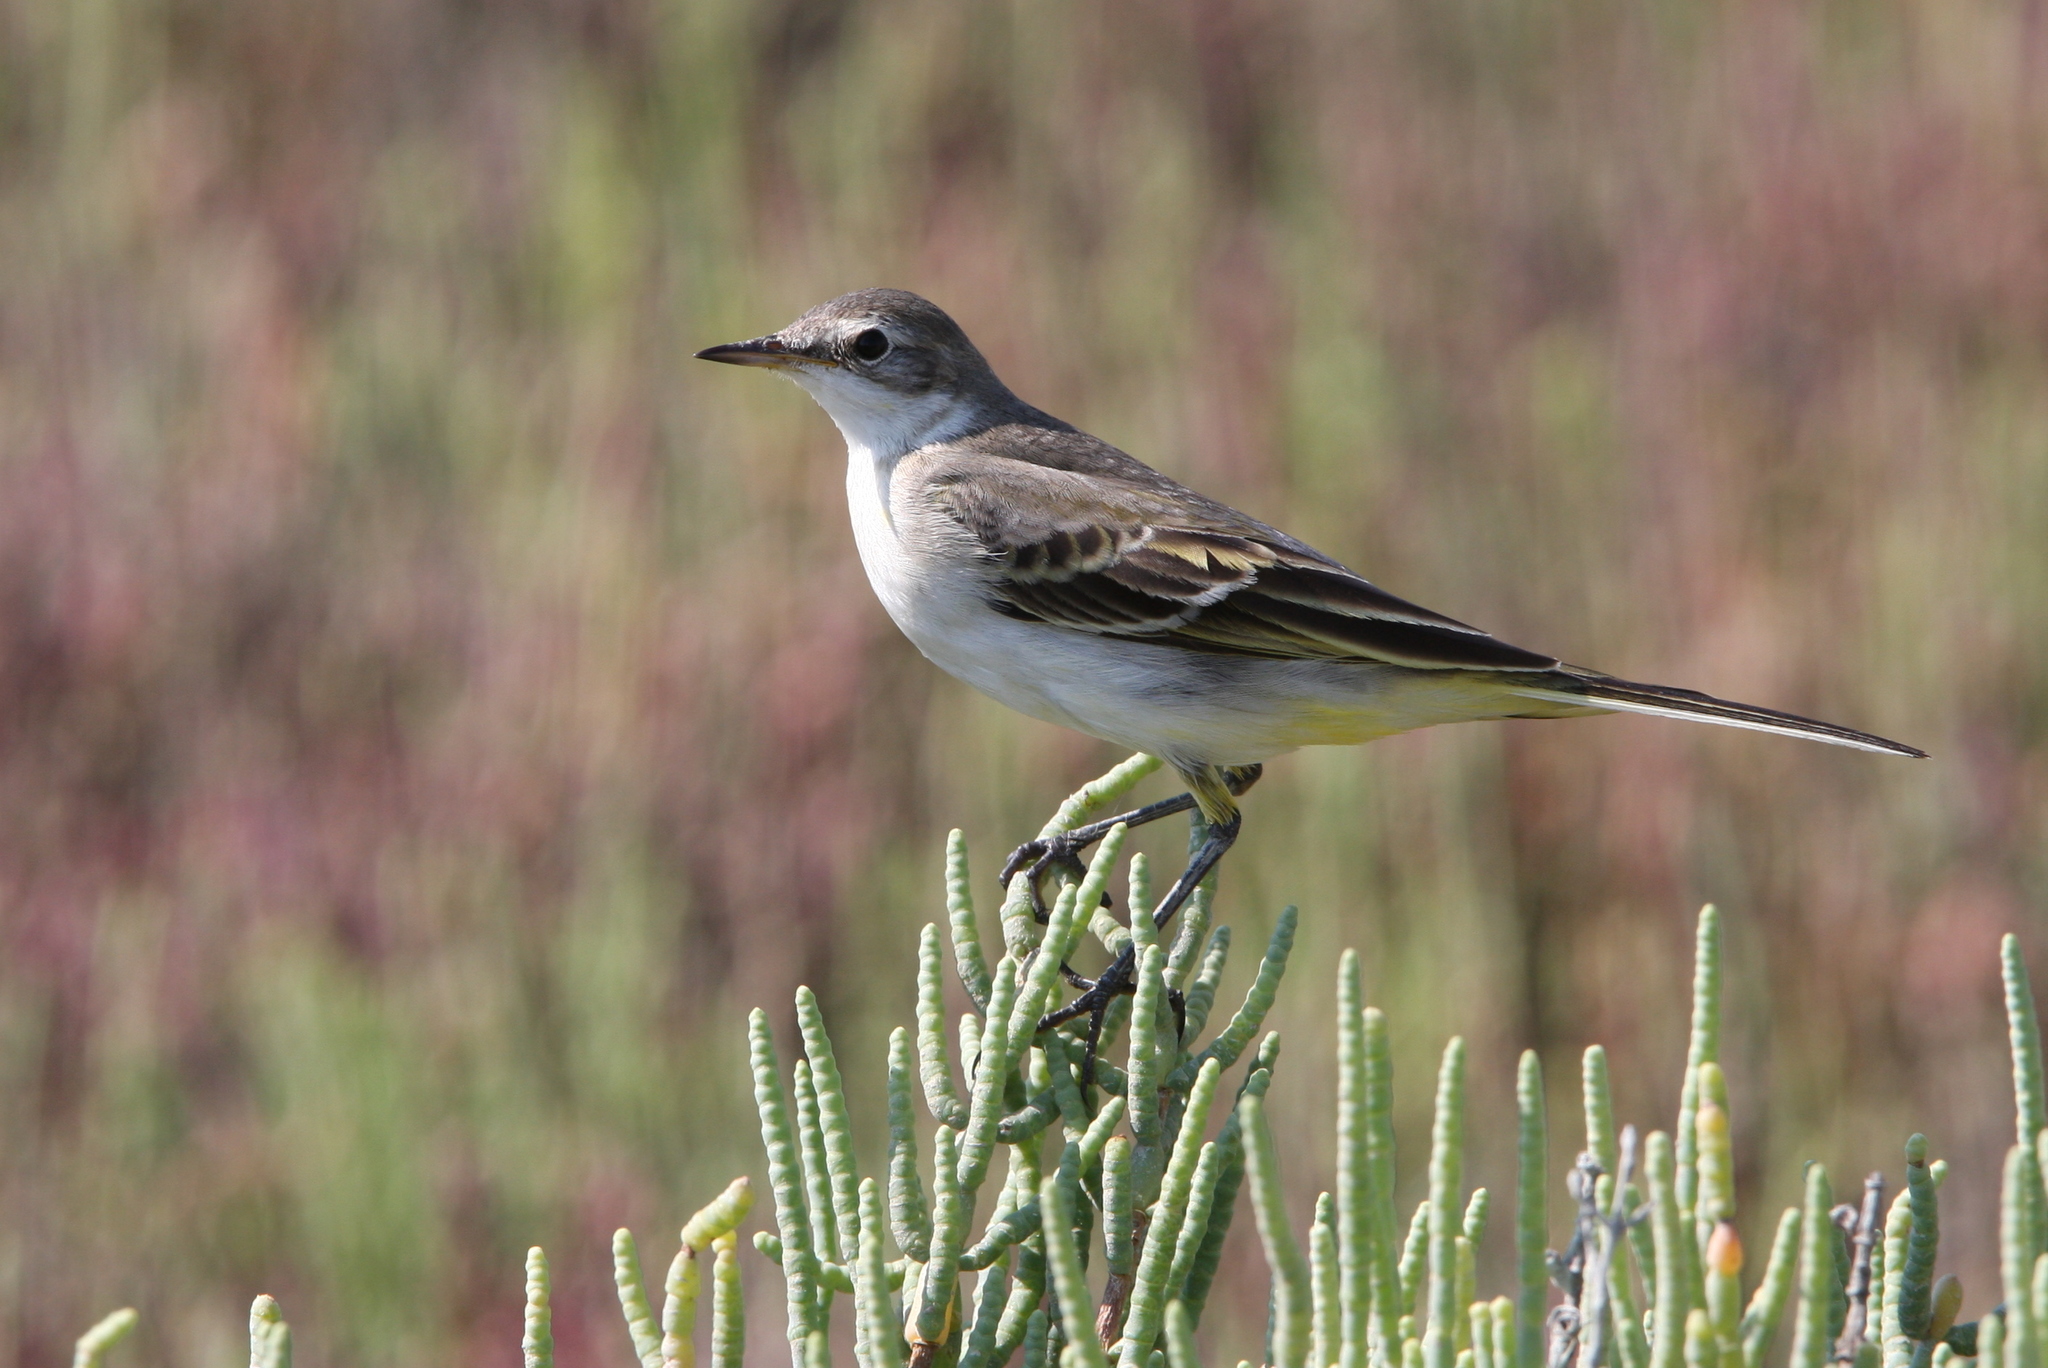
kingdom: Animalia
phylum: Chordata
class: Aves
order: Passeriformes
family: Motacillidae
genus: Motacilla
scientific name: Motacilla flava
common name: Western yellow wagtail
